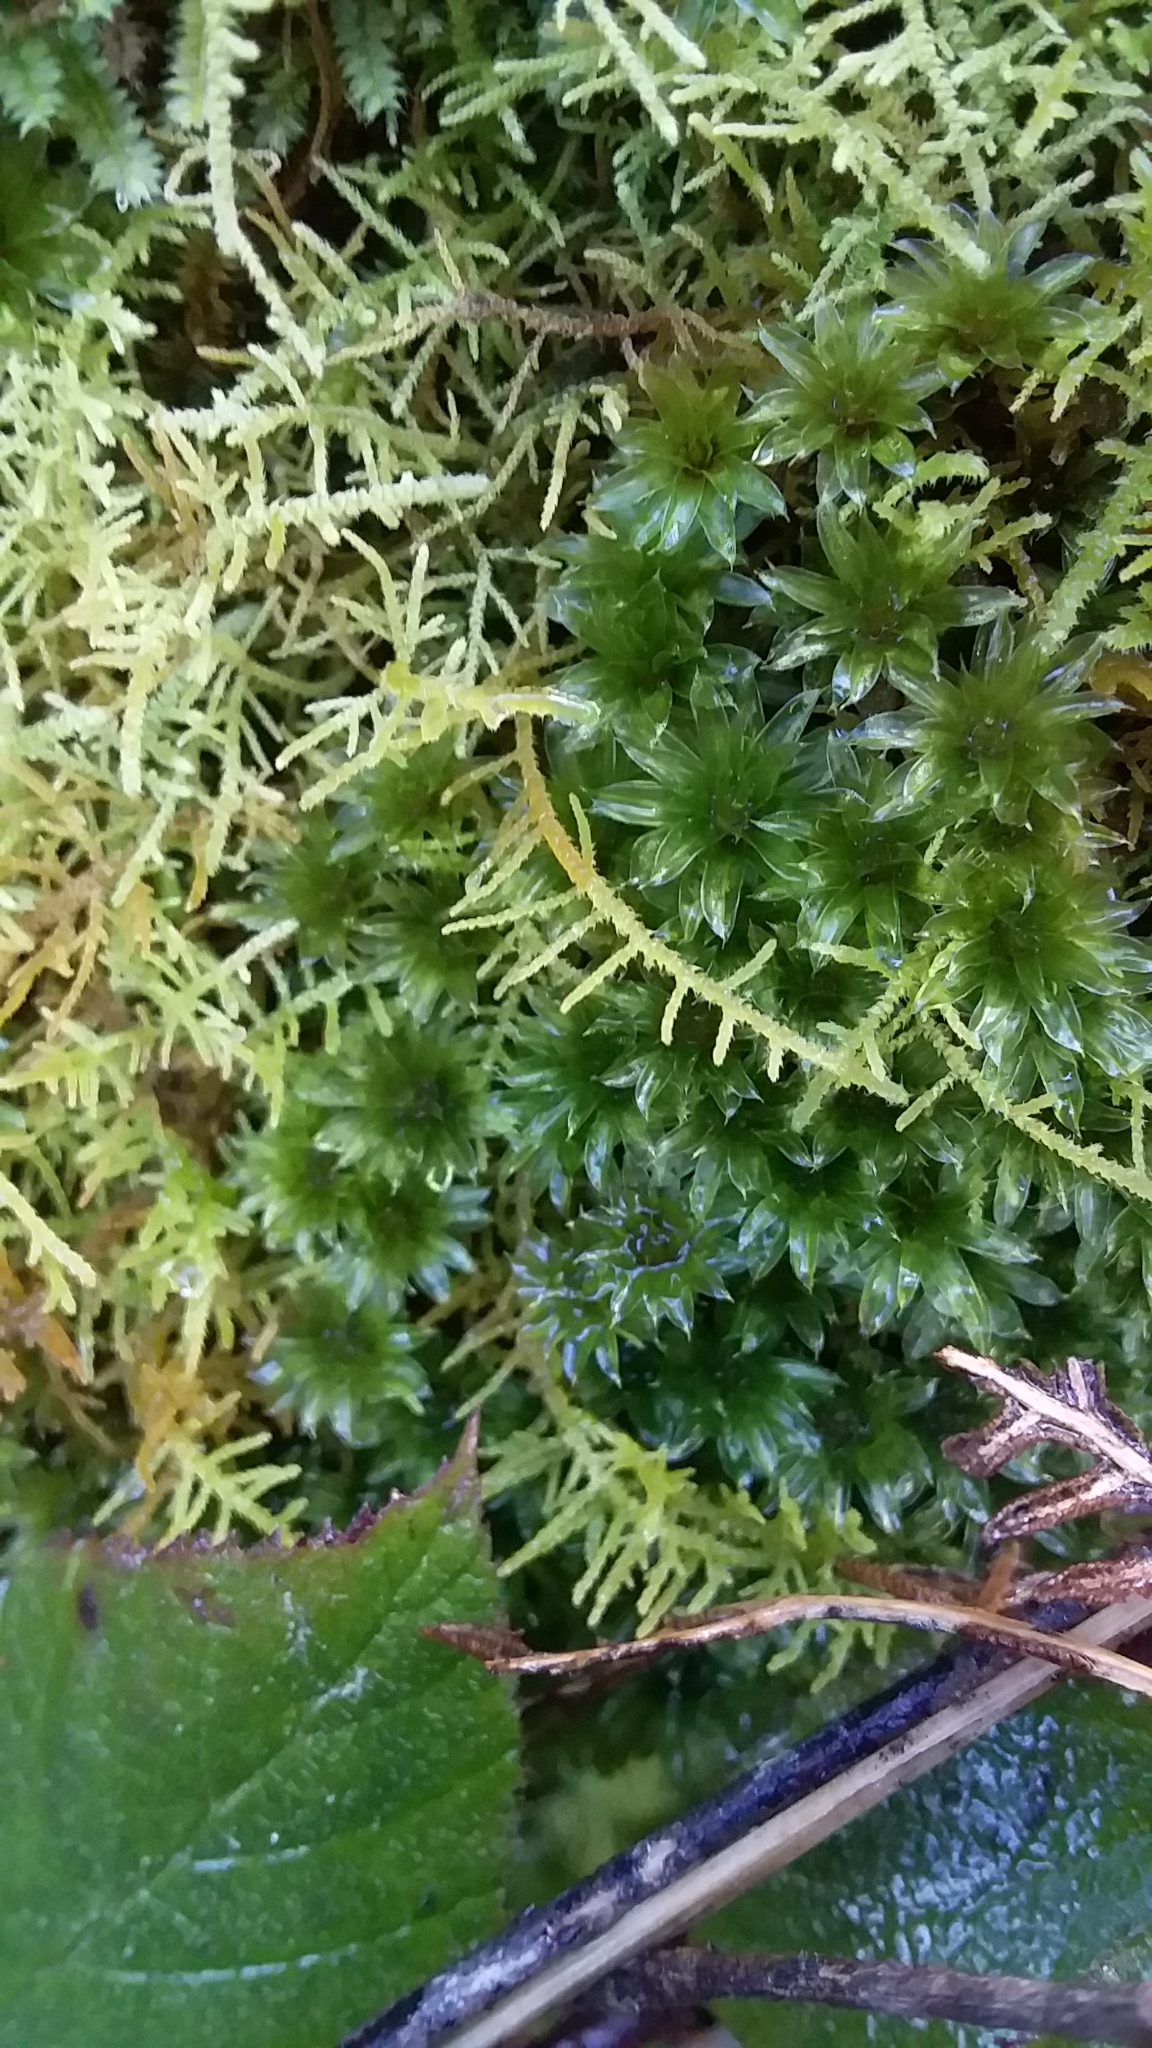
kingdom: Plantae
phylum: Bryophyta
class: Bryopsida
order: Bryales
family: Bryaceae
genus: Rosulabryum
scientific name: Rosulabryum billardierei
